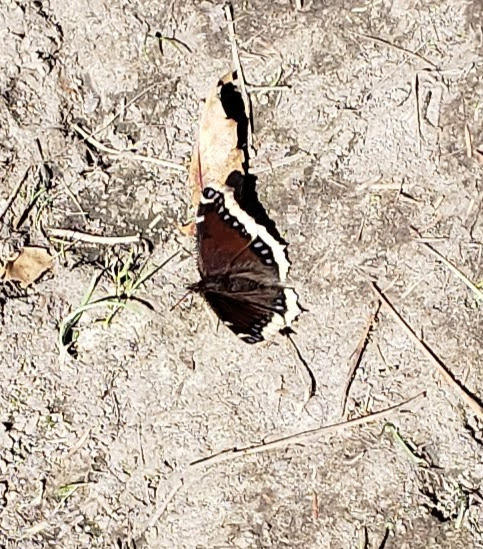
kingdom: Animalia
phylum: Arthropoda
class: Insecta
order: Lepidoptera
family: Nymphalidae
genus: Nymphalis
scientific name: Nymphalis antiopa
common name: Camberwell beauty
